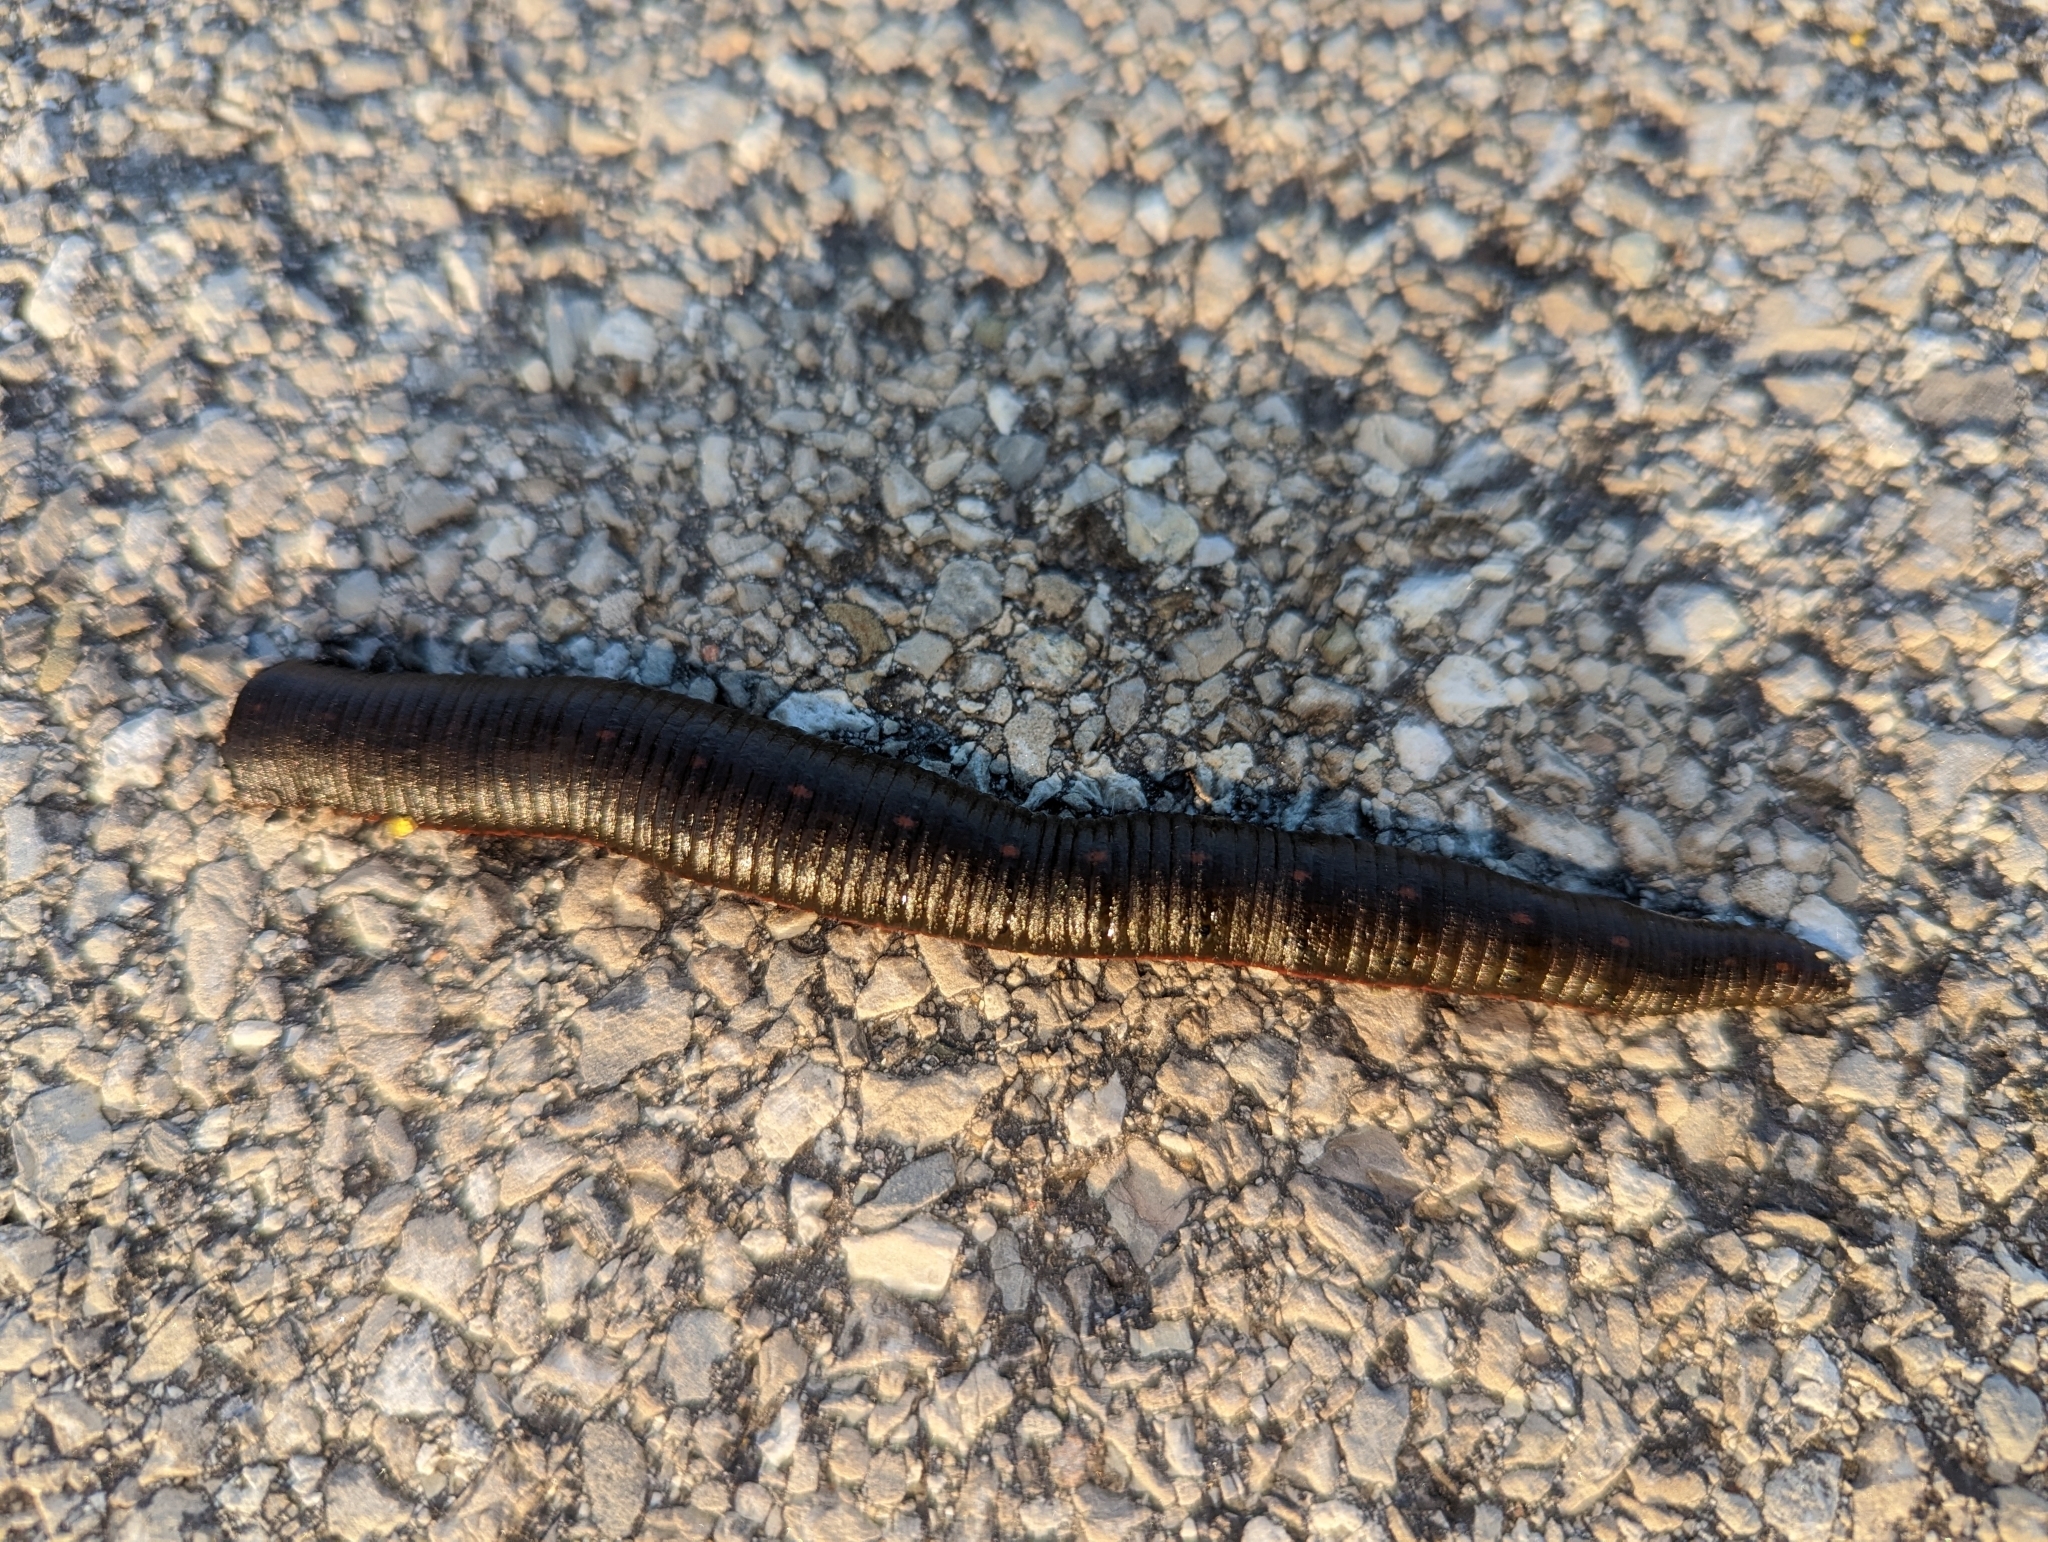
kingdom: Animalia
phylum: Annelida
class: Clitellata
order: Arhynchobdellida
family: Hirudinidae
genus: Macrobdella
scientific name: Macrobdella decora
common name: North american leech
